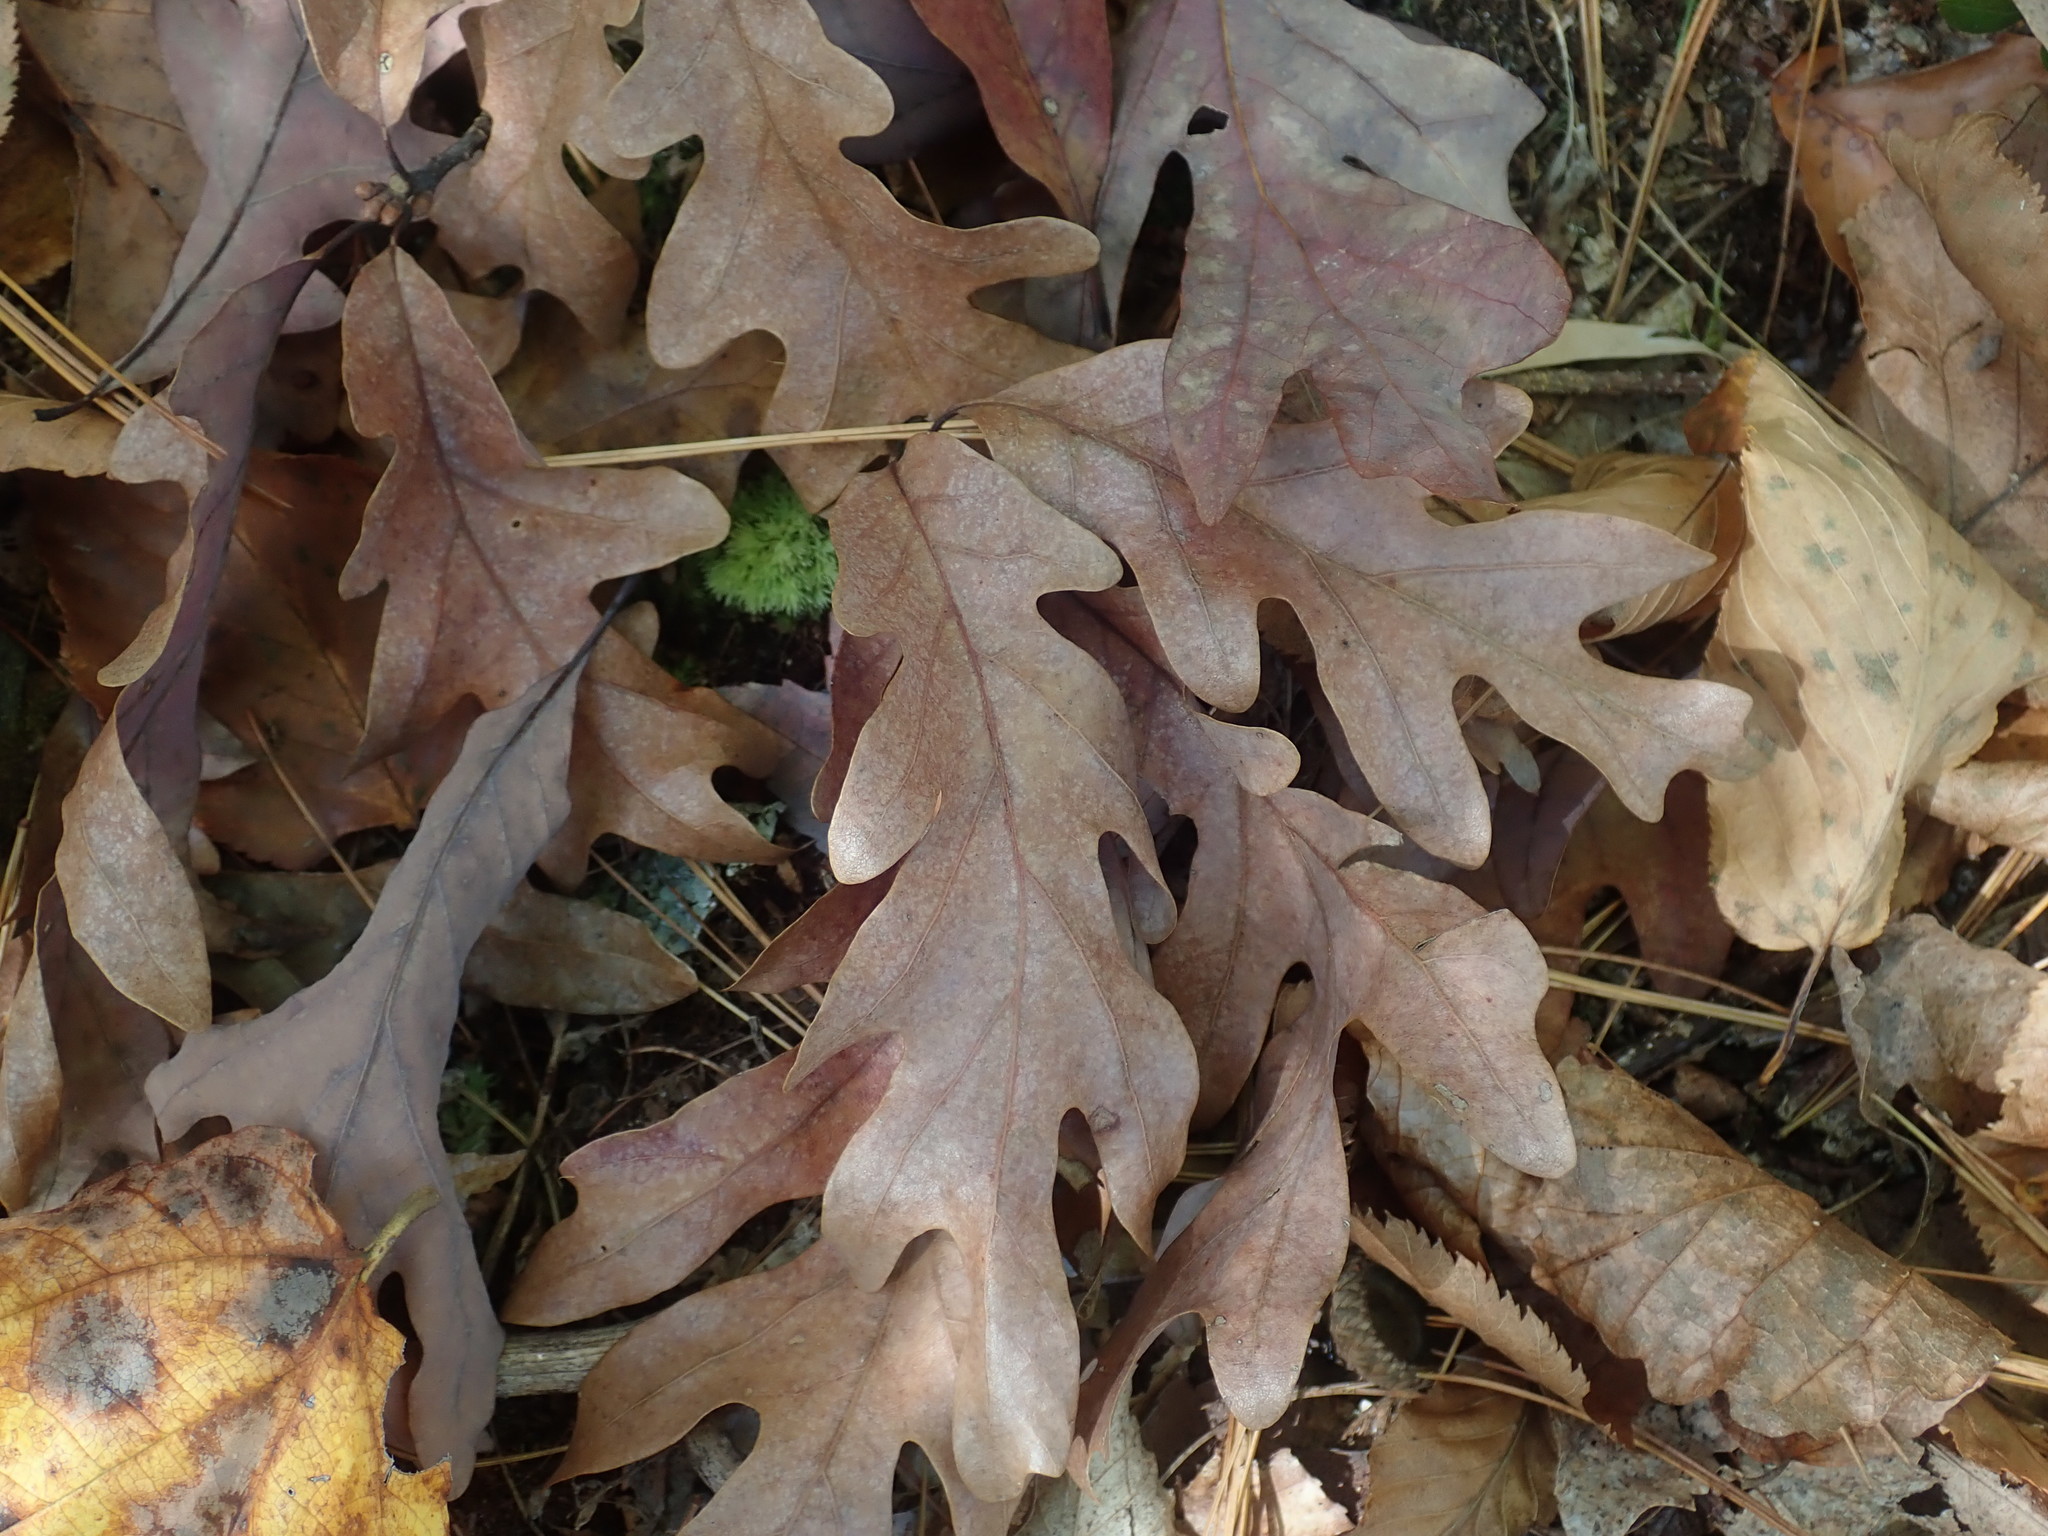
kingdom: Plantae
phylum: Tracheophyta
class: Magnoliopsida
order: Fagales
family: Fagaceae
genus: Quercus
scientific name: Quercus alba
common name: White oak
